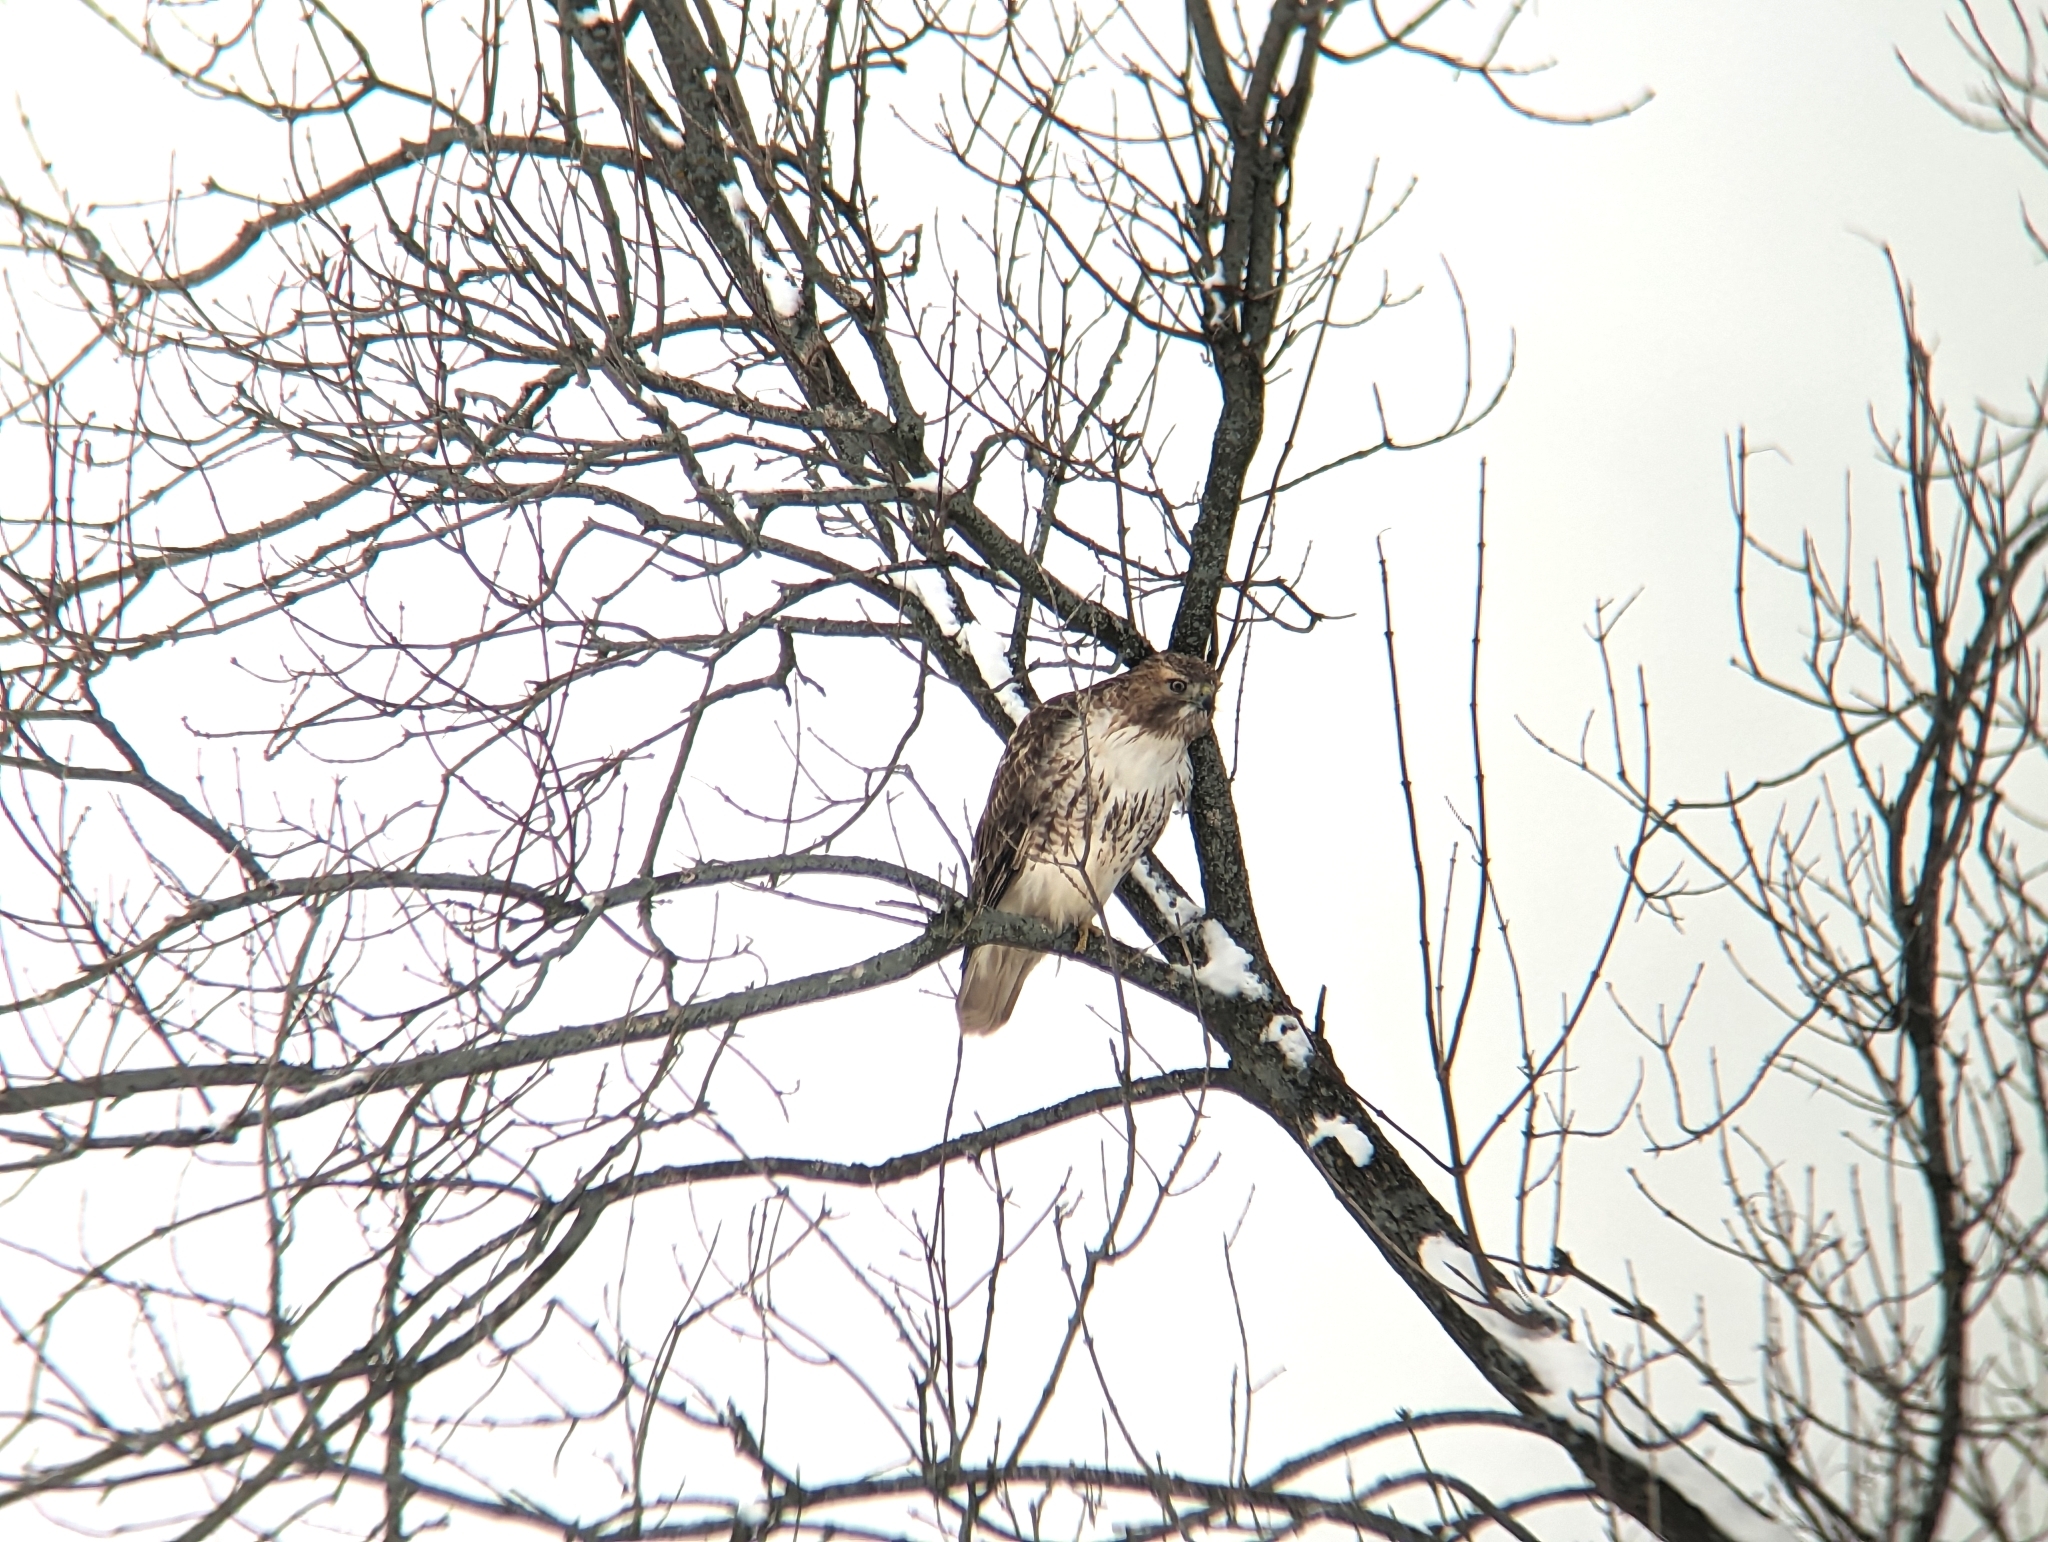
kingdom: Animalia
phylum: Chordata
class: Aves
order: Accipitriformes
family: Accipitridae
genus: Buteo
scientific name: Buteo jamaicensis
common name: Red-tailed hawk
